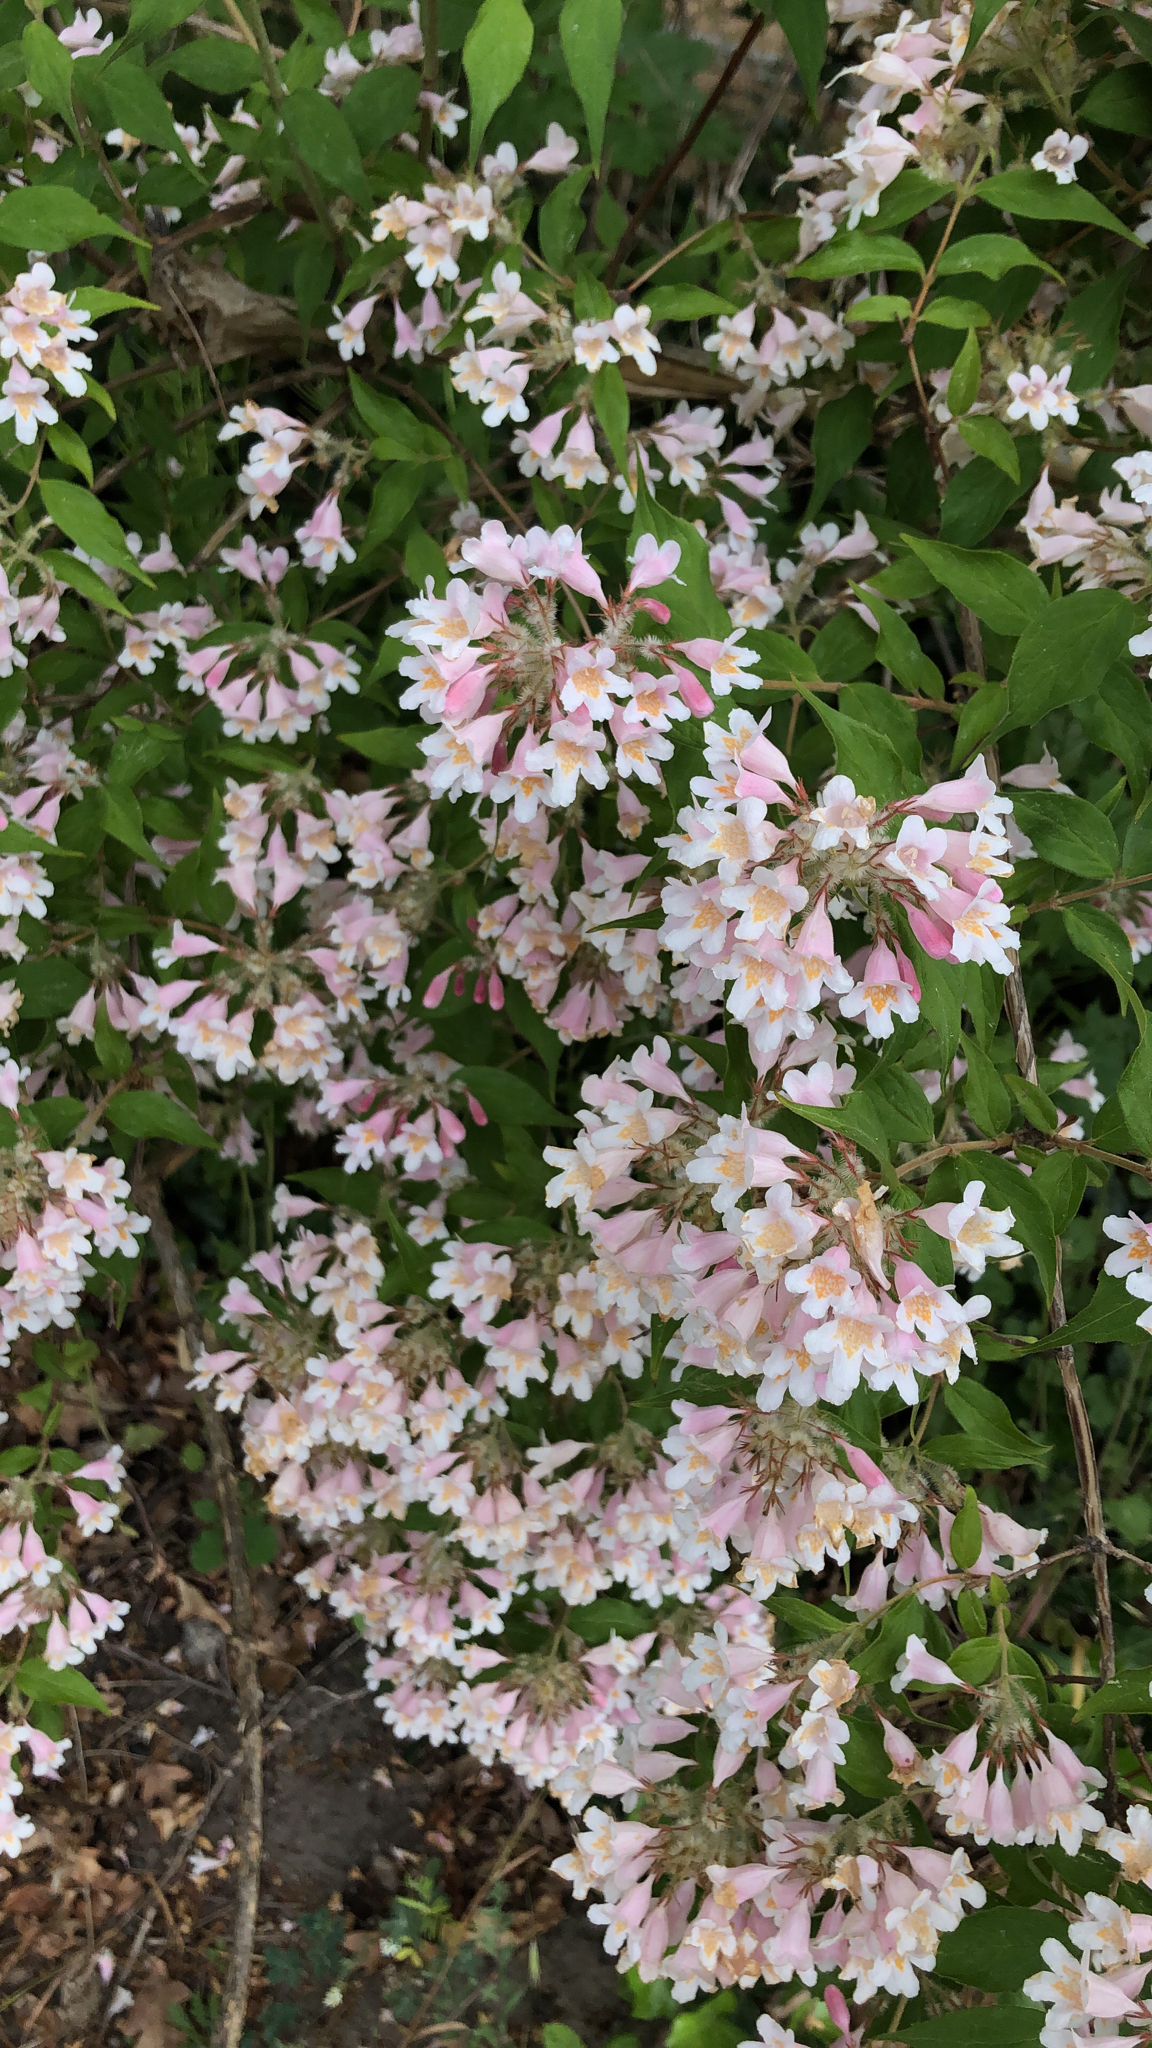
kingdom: Plantae
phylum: Tracheophyta
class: Magnoliopsida
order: Dipsacales
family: Caprifoliaceae
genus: Kolkwitzia
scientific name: Kolkwitzia amabilis
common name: Beautybush
